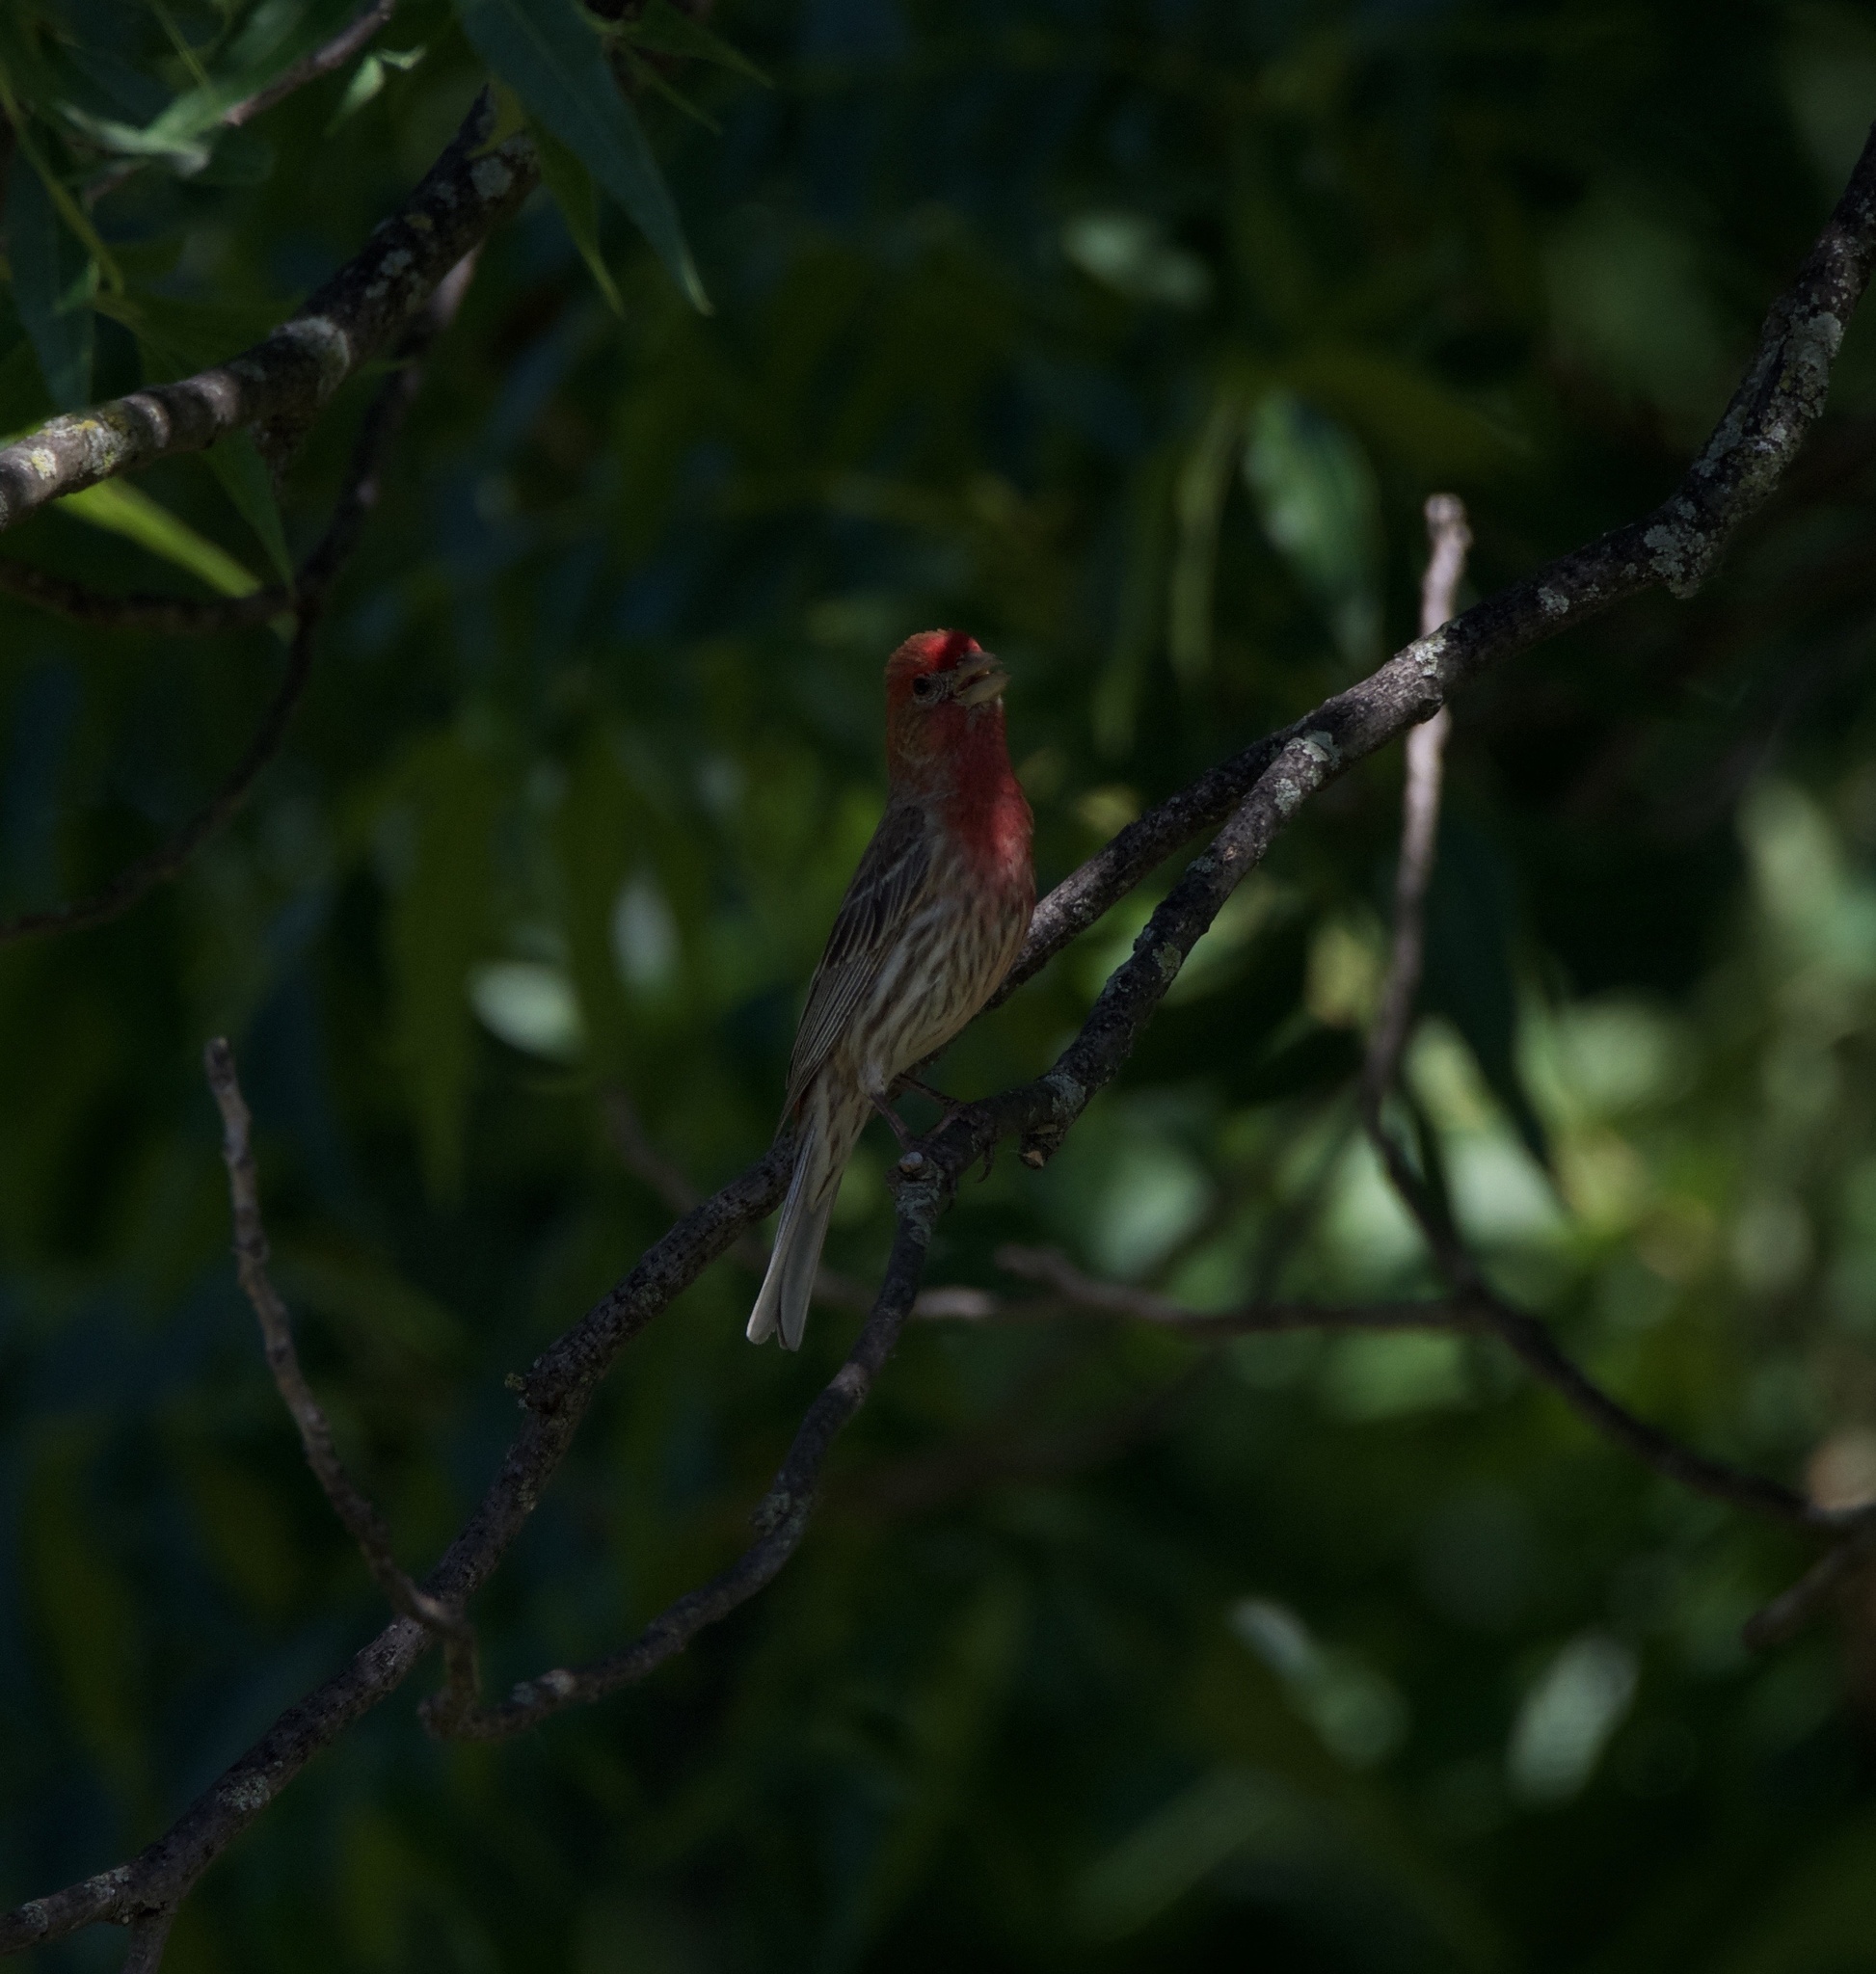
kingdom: Animalia
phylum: Chordata
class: Aves
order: Passeriformes
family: Fringillidae
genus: Haemorhous
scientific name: Haemorhous mexicanus
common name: House finch
